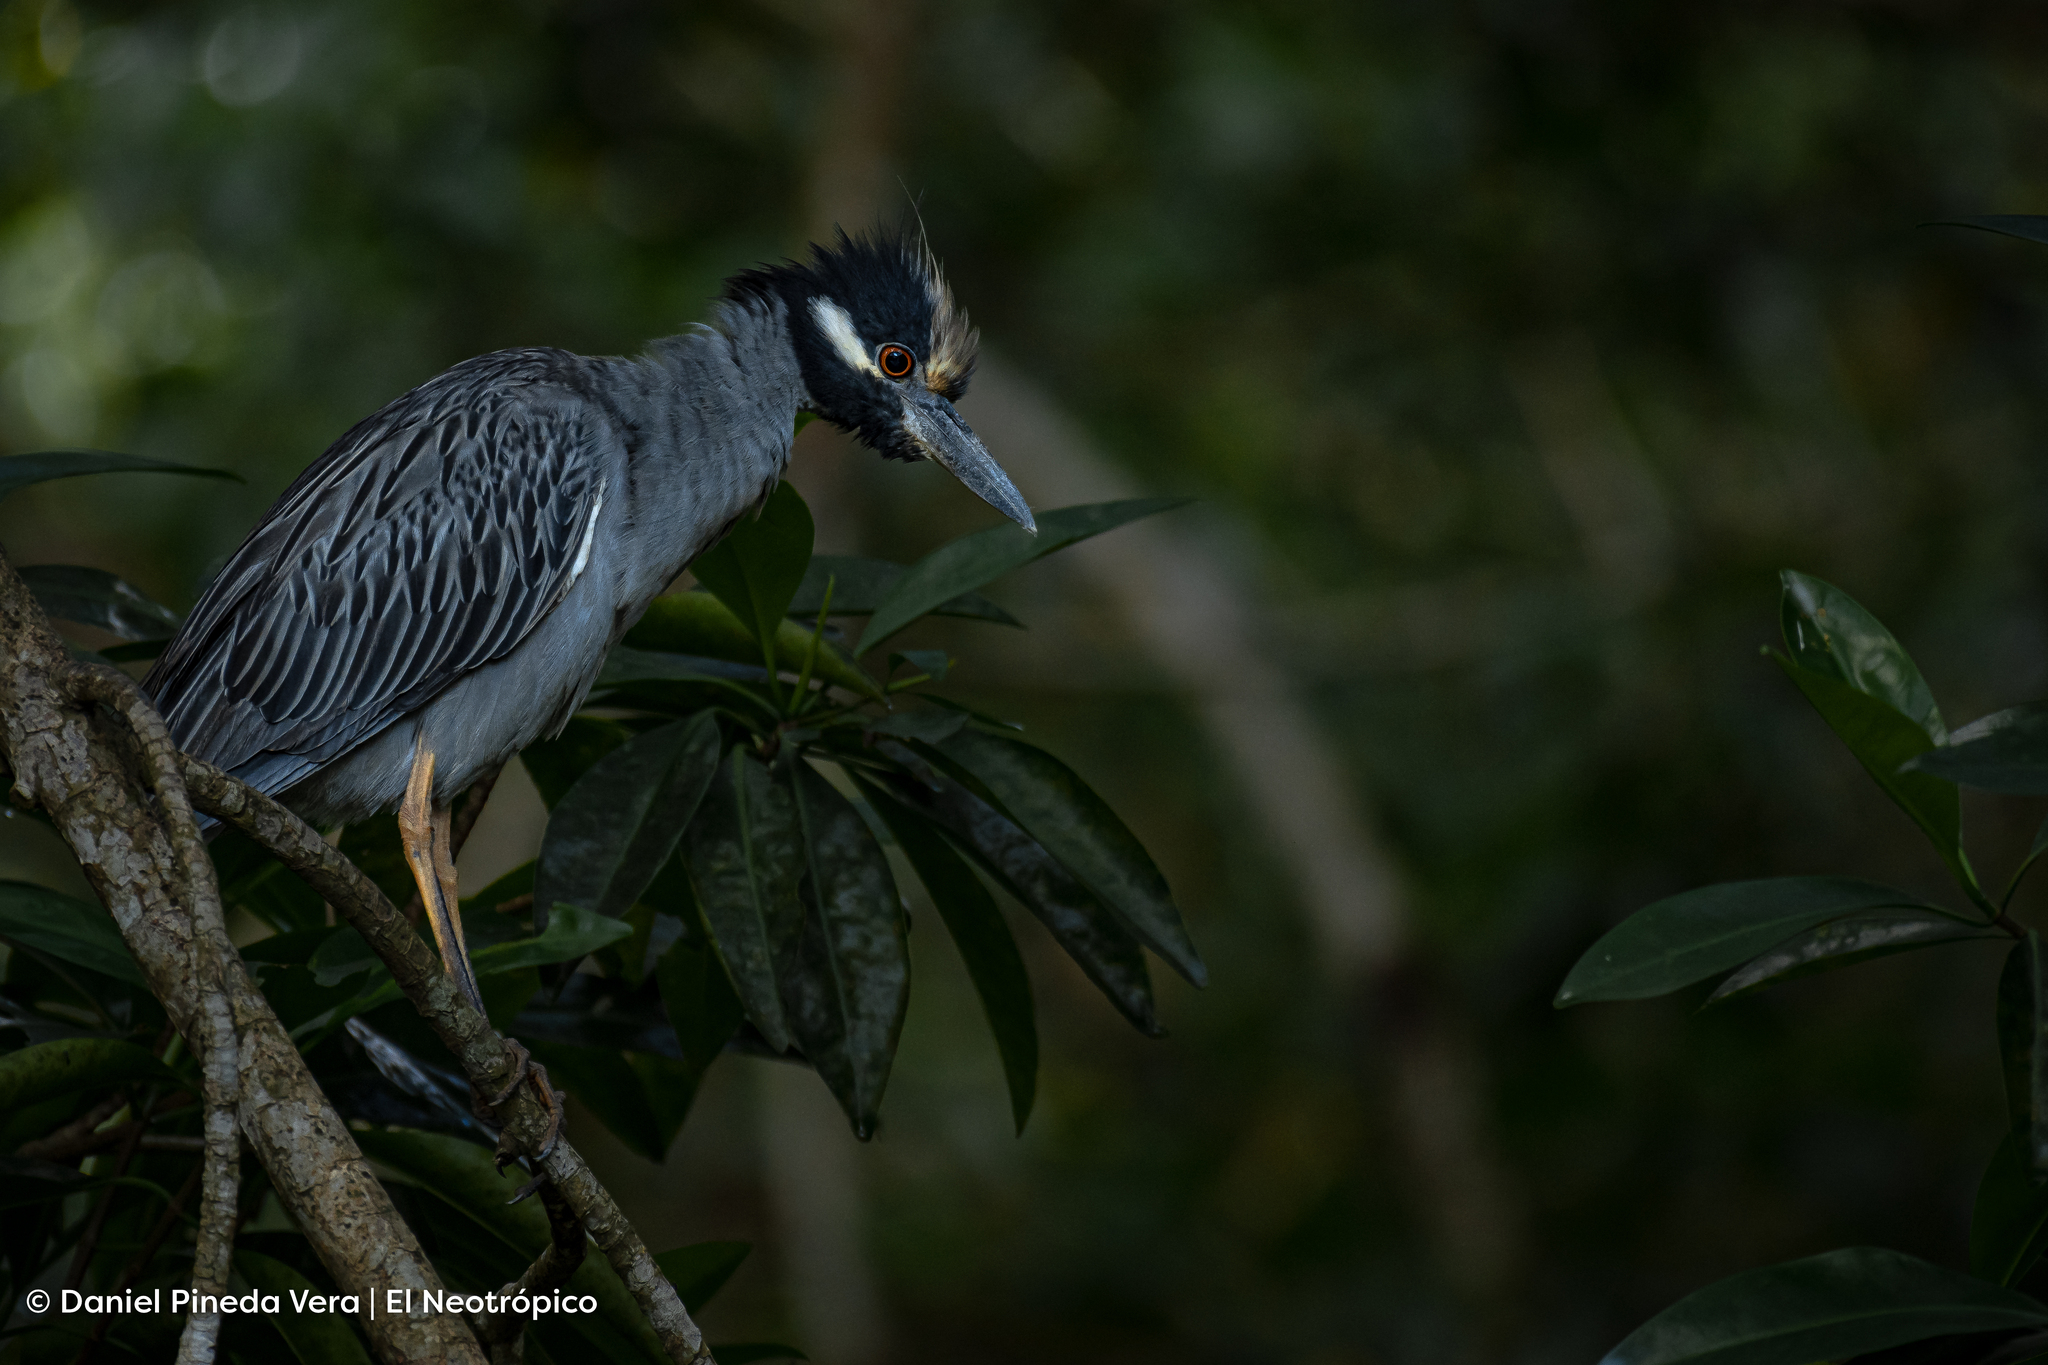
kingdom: Animalia
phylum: Chordata
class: Aves
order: Pelecaniformes
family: Ardeidae
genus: Nyctanassa
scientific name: Nyctanassa violacea
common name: Yellow-crowned night heron
